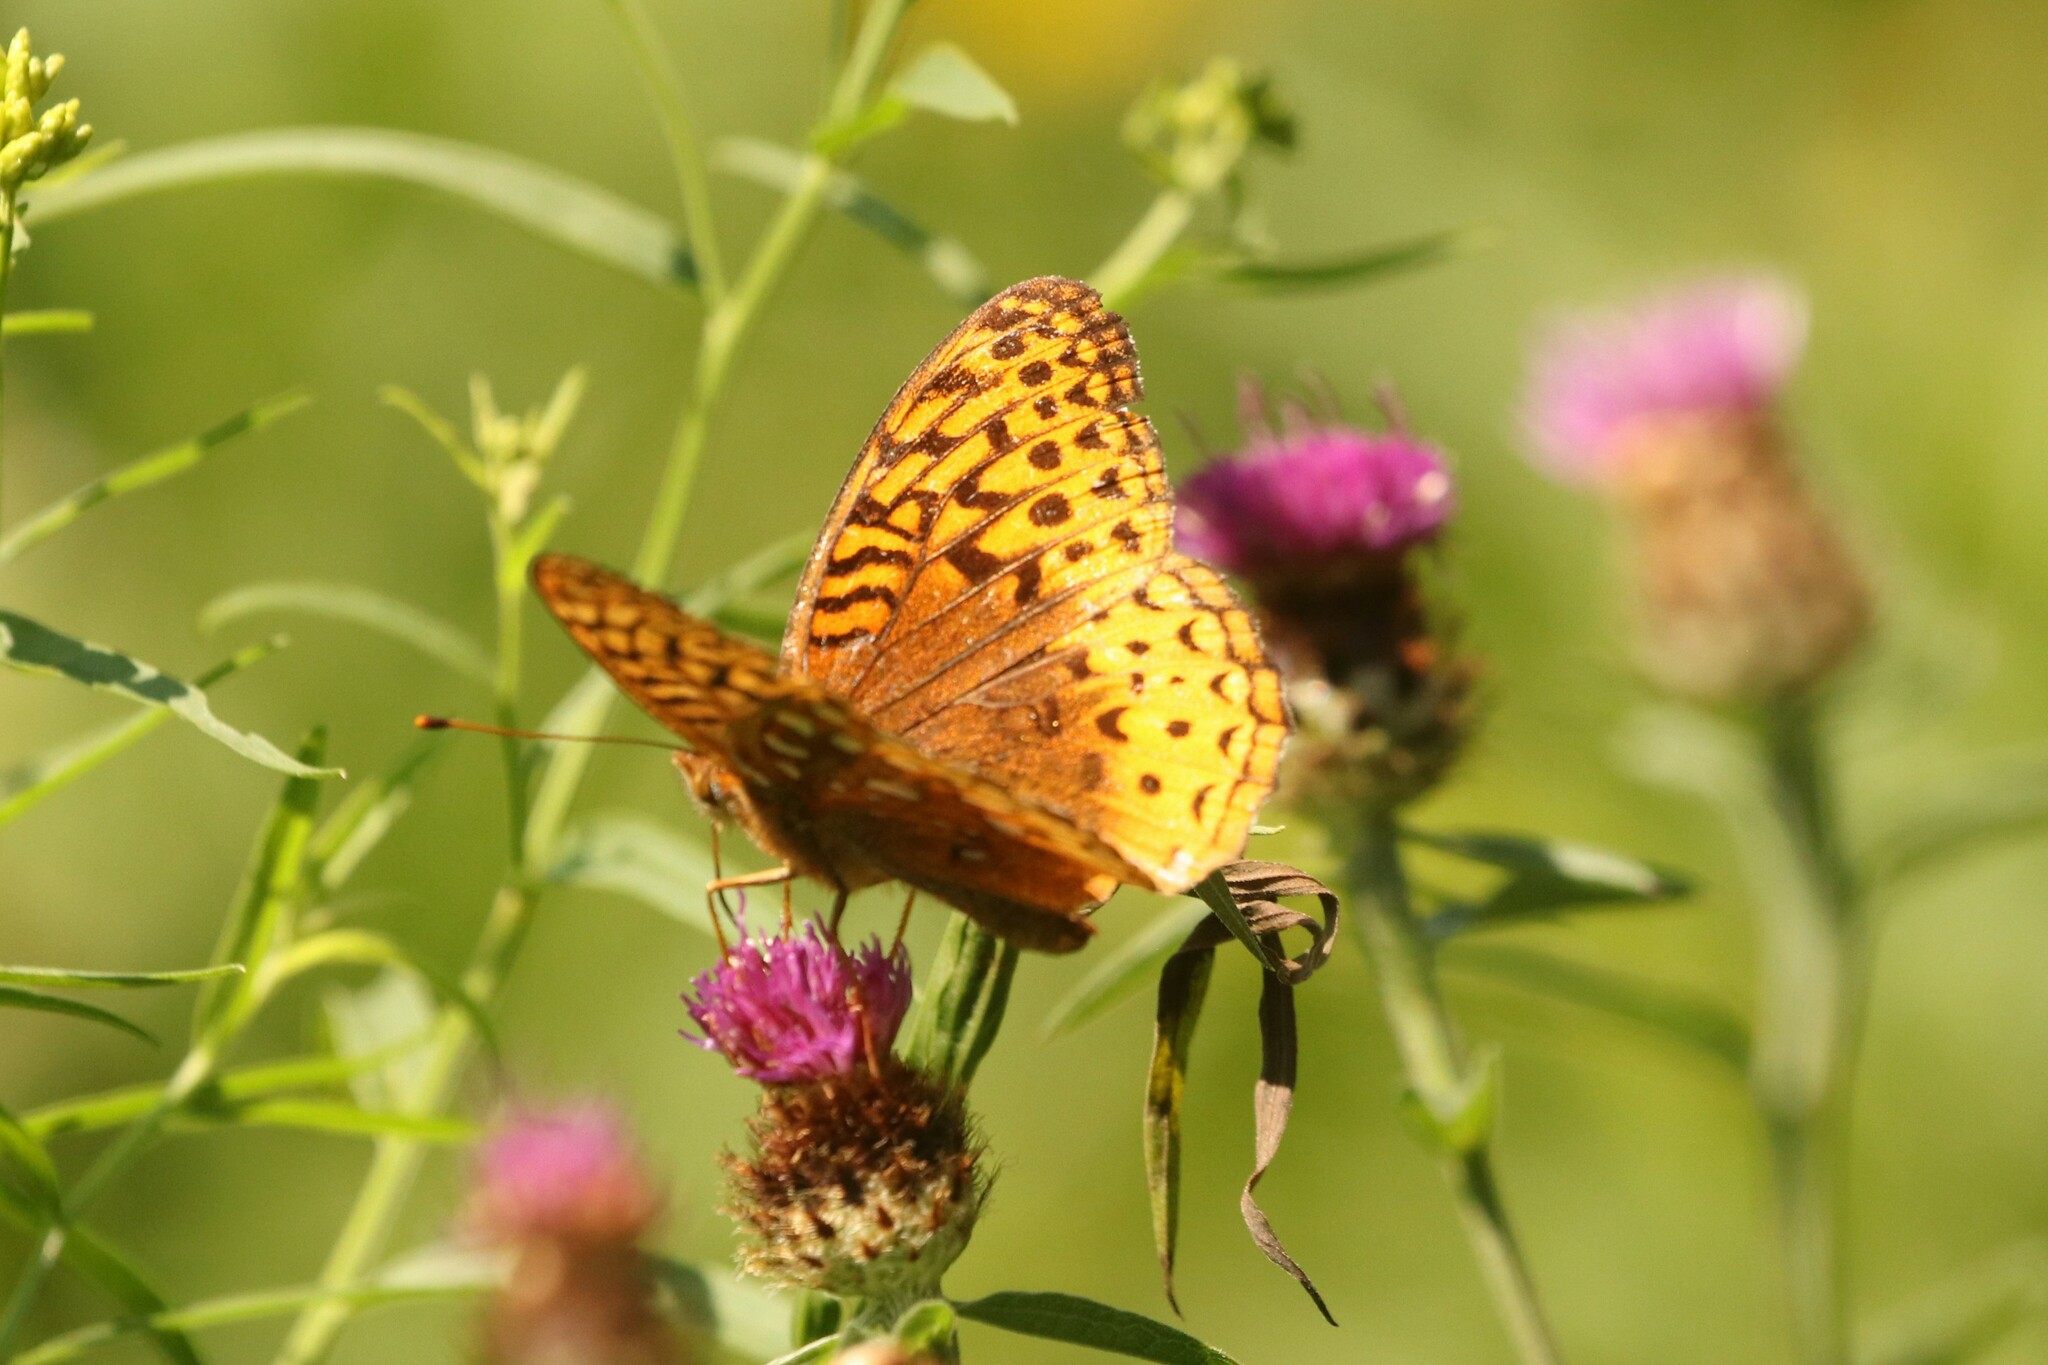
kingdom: Animalia
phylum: Arthropoda
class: Insecta
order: Lepidoptera
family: Nymphalidae
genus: Speyeria
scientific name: Speyeria cybele
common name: Great spangled fritillary
